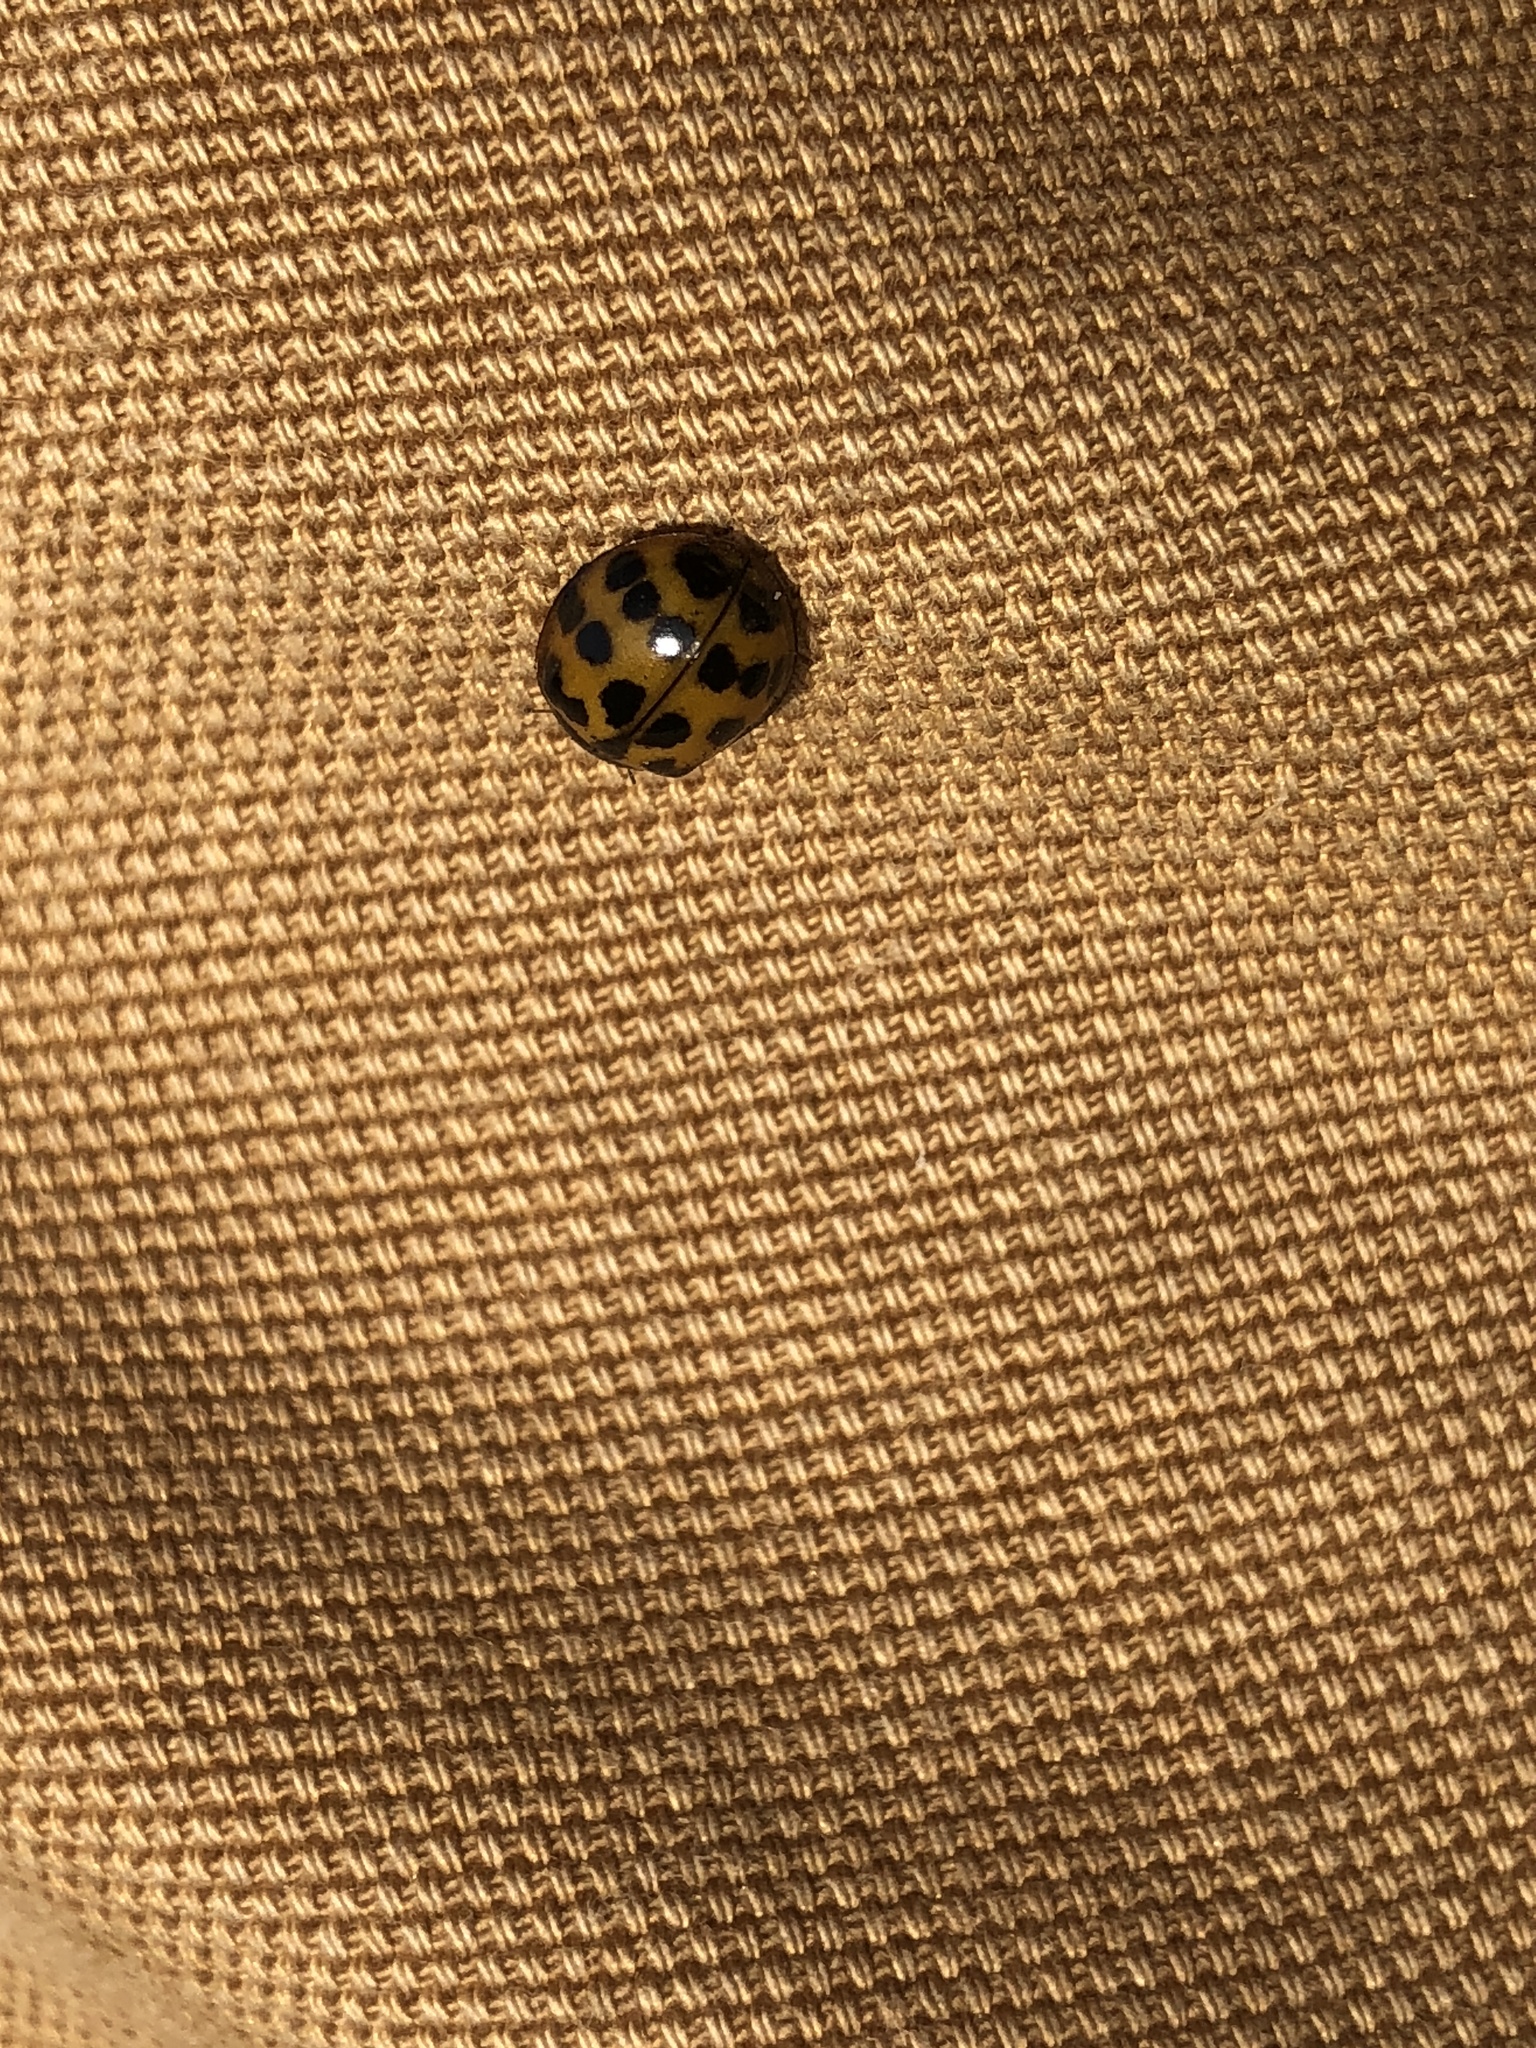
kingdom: Animalia
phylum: Arthropoda
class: Insecta
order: Coleoptera
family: Coccinellidae
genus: Harmonia
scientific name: Harmonia axyridis
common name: Harlequin ladybird
